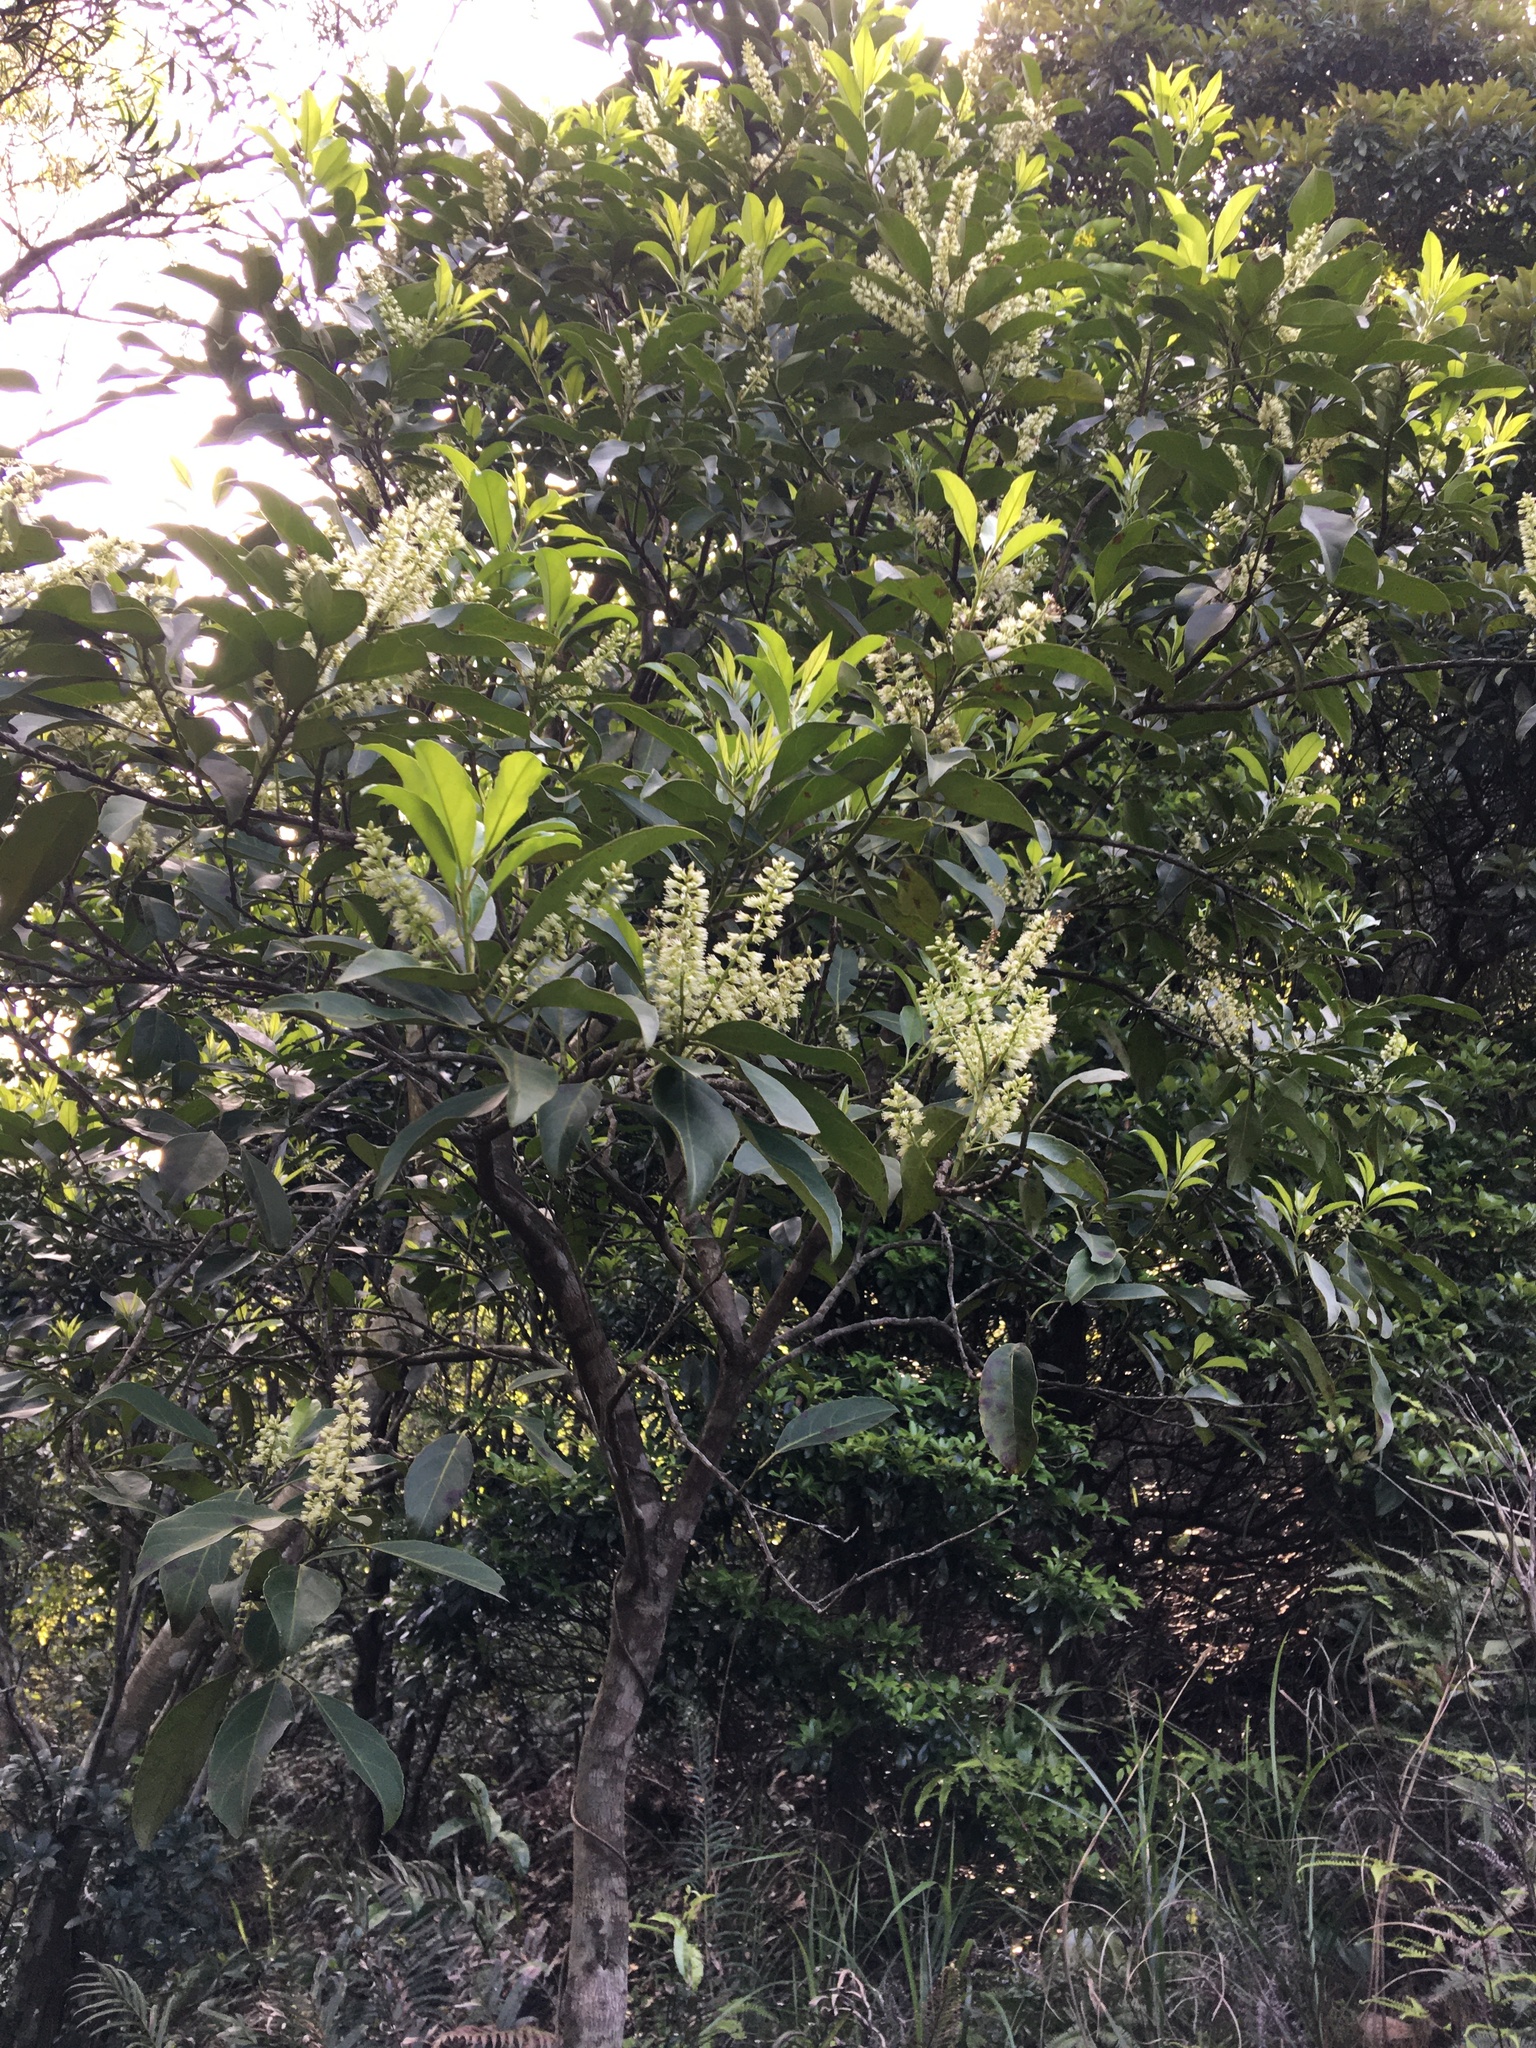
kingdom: Plantae
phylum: Tracheophyta
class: Magnoliopsida
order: Saxifragales
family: Iteaceae
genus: Itea
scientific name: Itea chinensis
